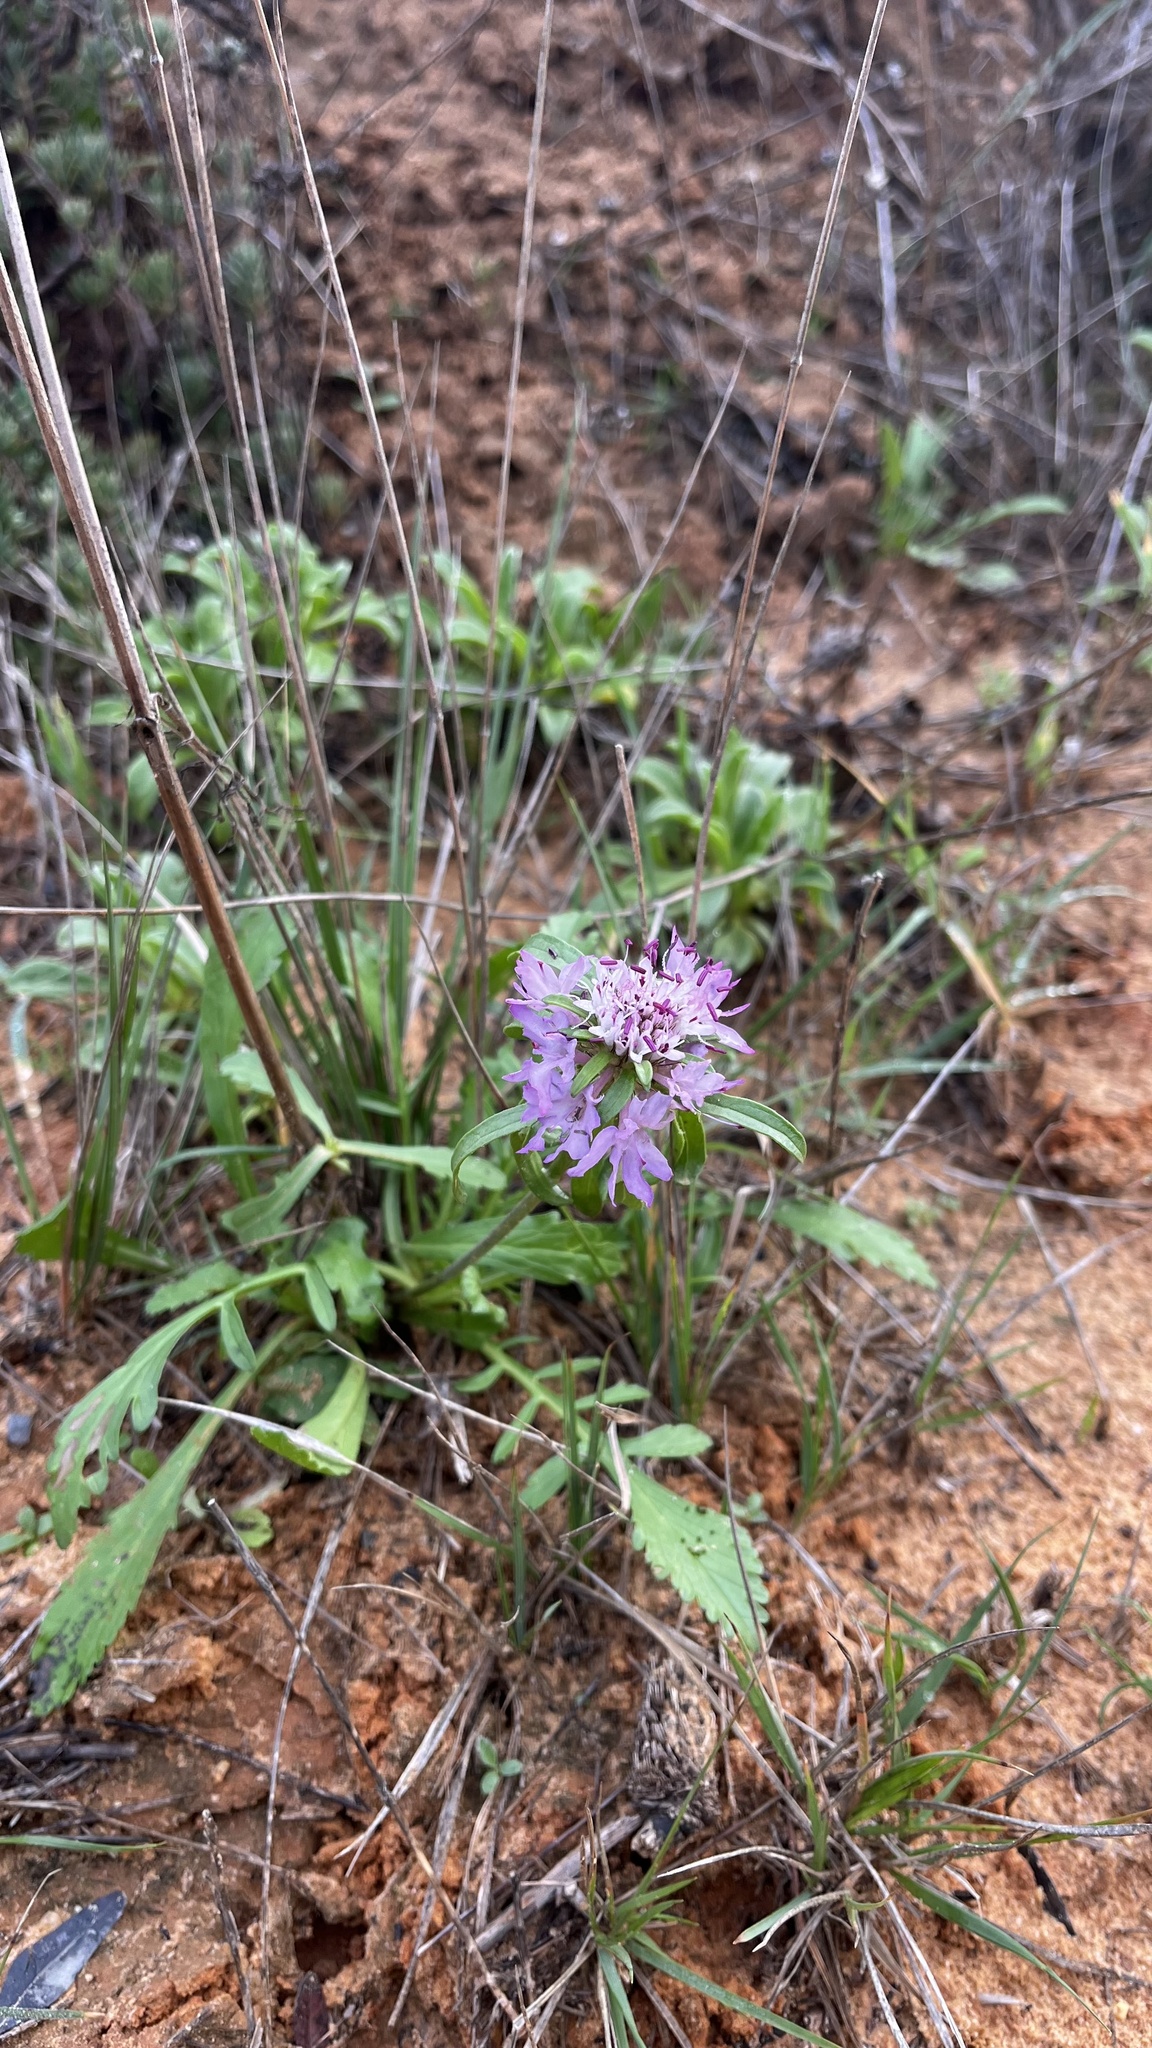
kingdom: Plantae
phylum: Tracheophyta
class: Magnoliopsida
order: Dipsacales
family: Caprifoliaceae
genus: Sixalix
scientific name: Sixalix atropurpurea
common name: Sweet scabious
